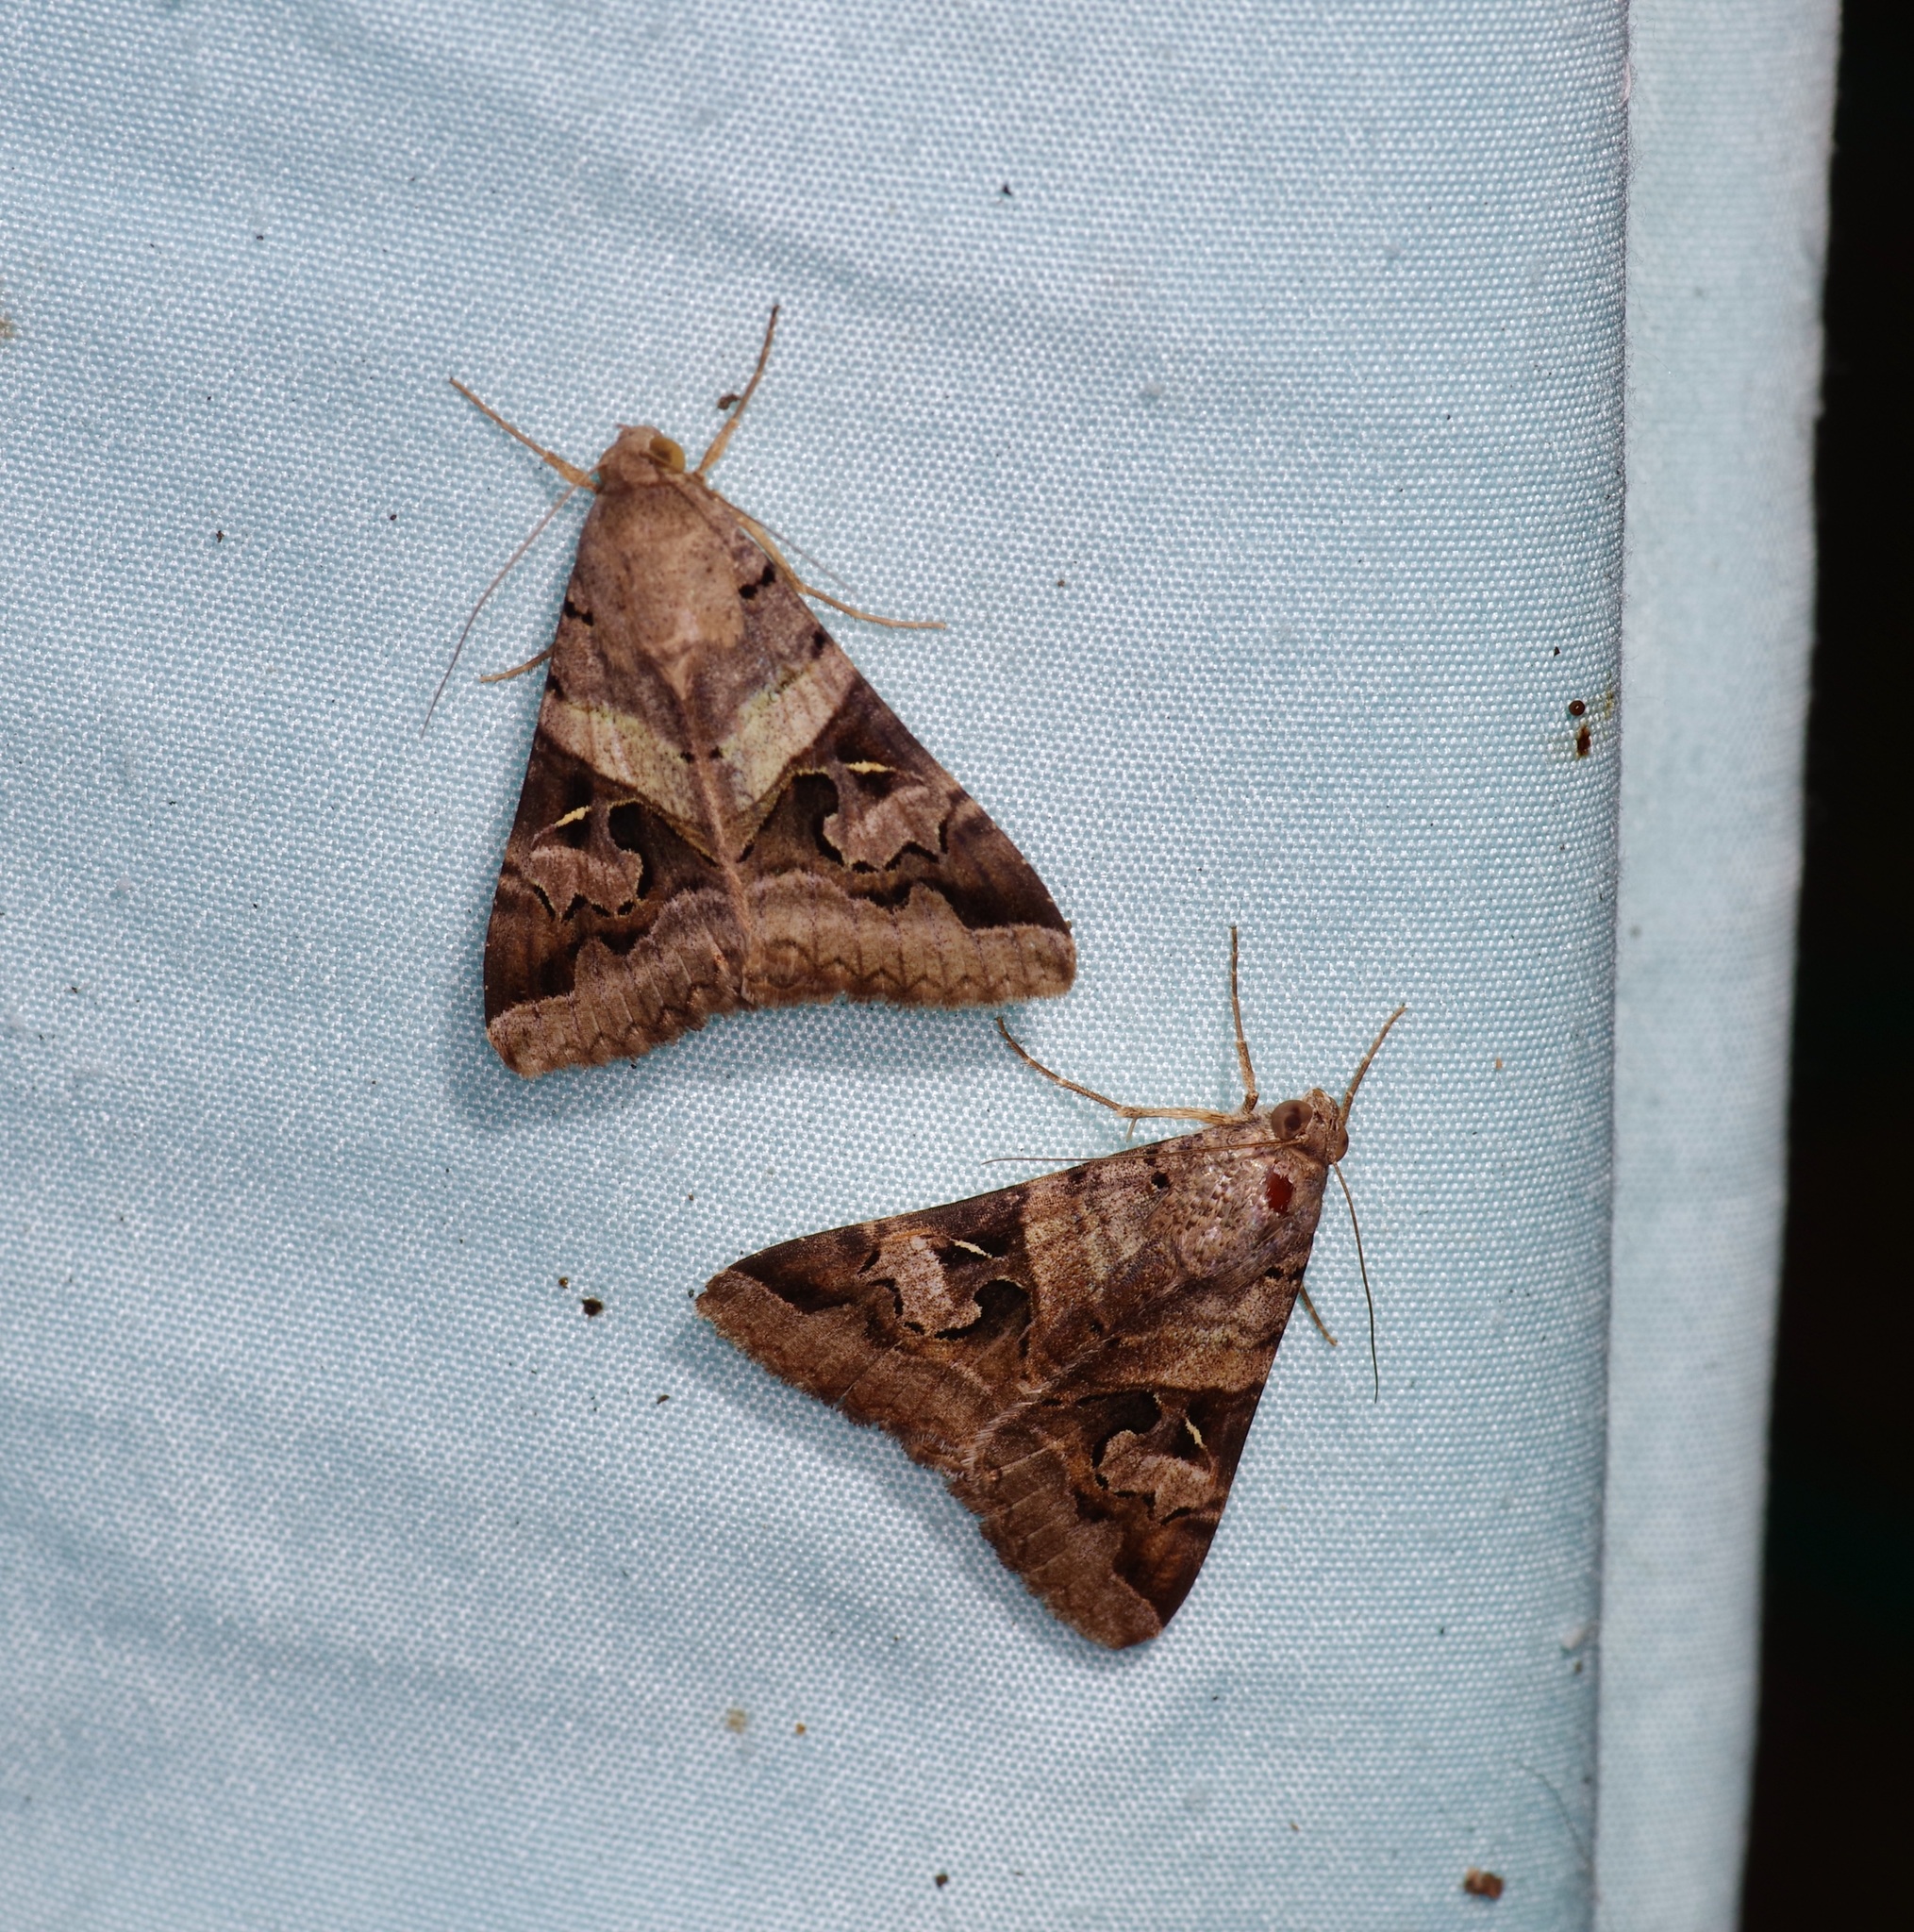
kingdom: Animalia
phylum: Arthropoda
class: Insecta
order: Lepidoptera
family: Erebidae
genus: Melipotis
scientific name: Melipotis indomita
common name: Moth
